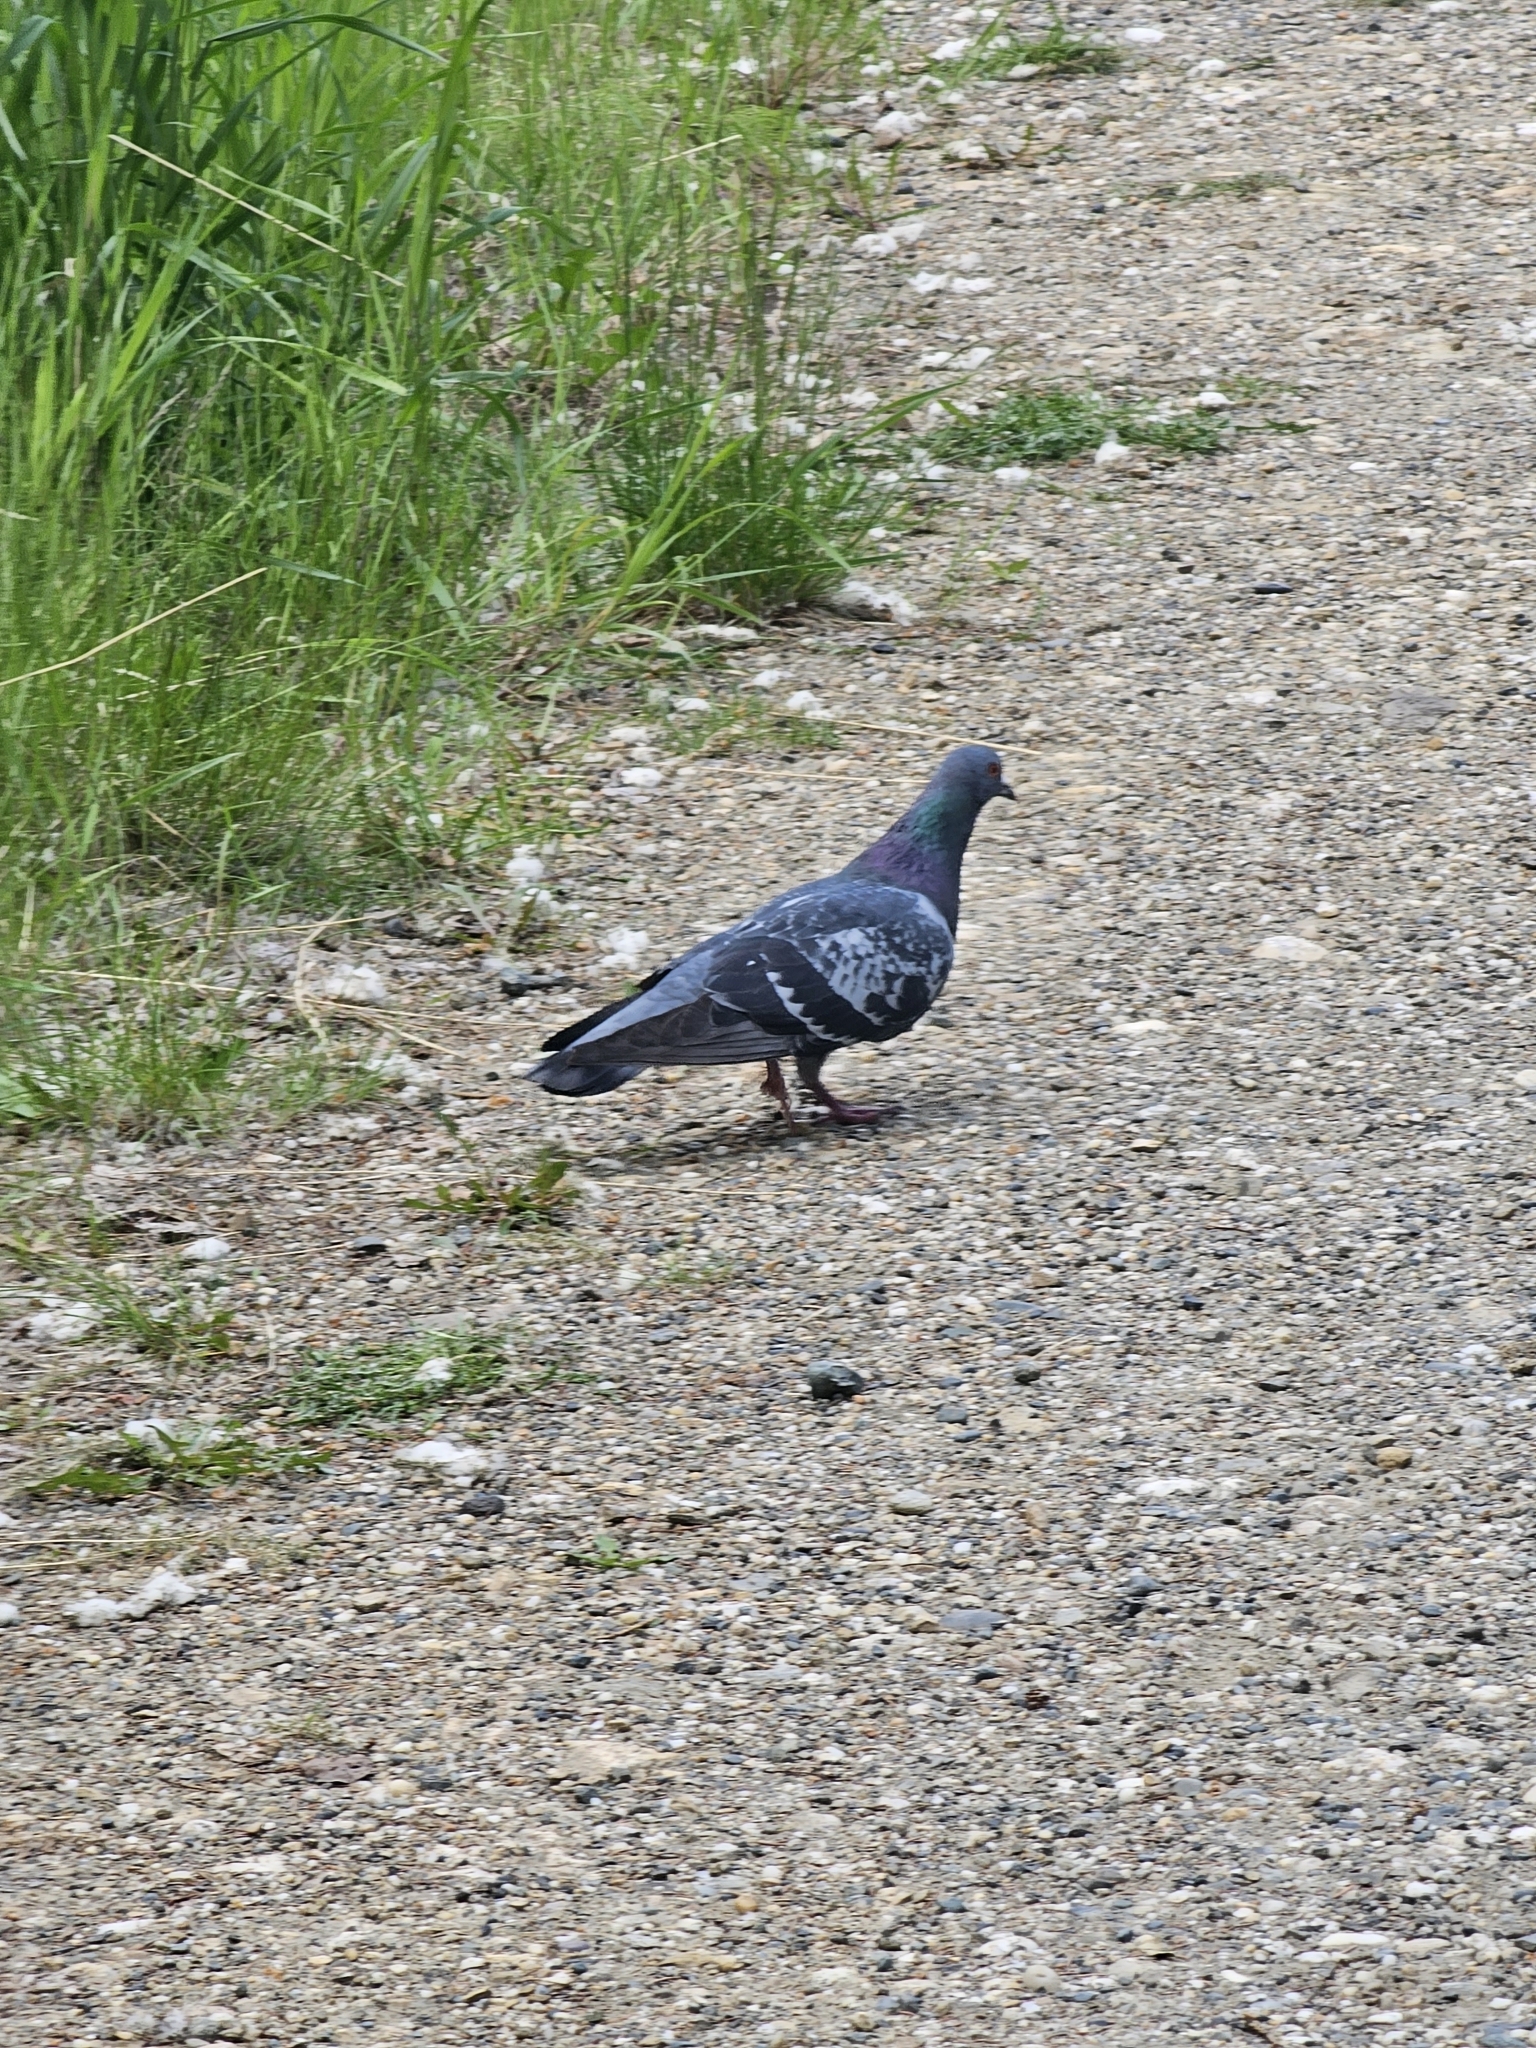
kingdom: Animalia
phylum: Chordata
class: Aves
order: Columbiformes
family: Columbidae
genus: Columba
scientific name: Columba livia
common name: Rock pigeon
